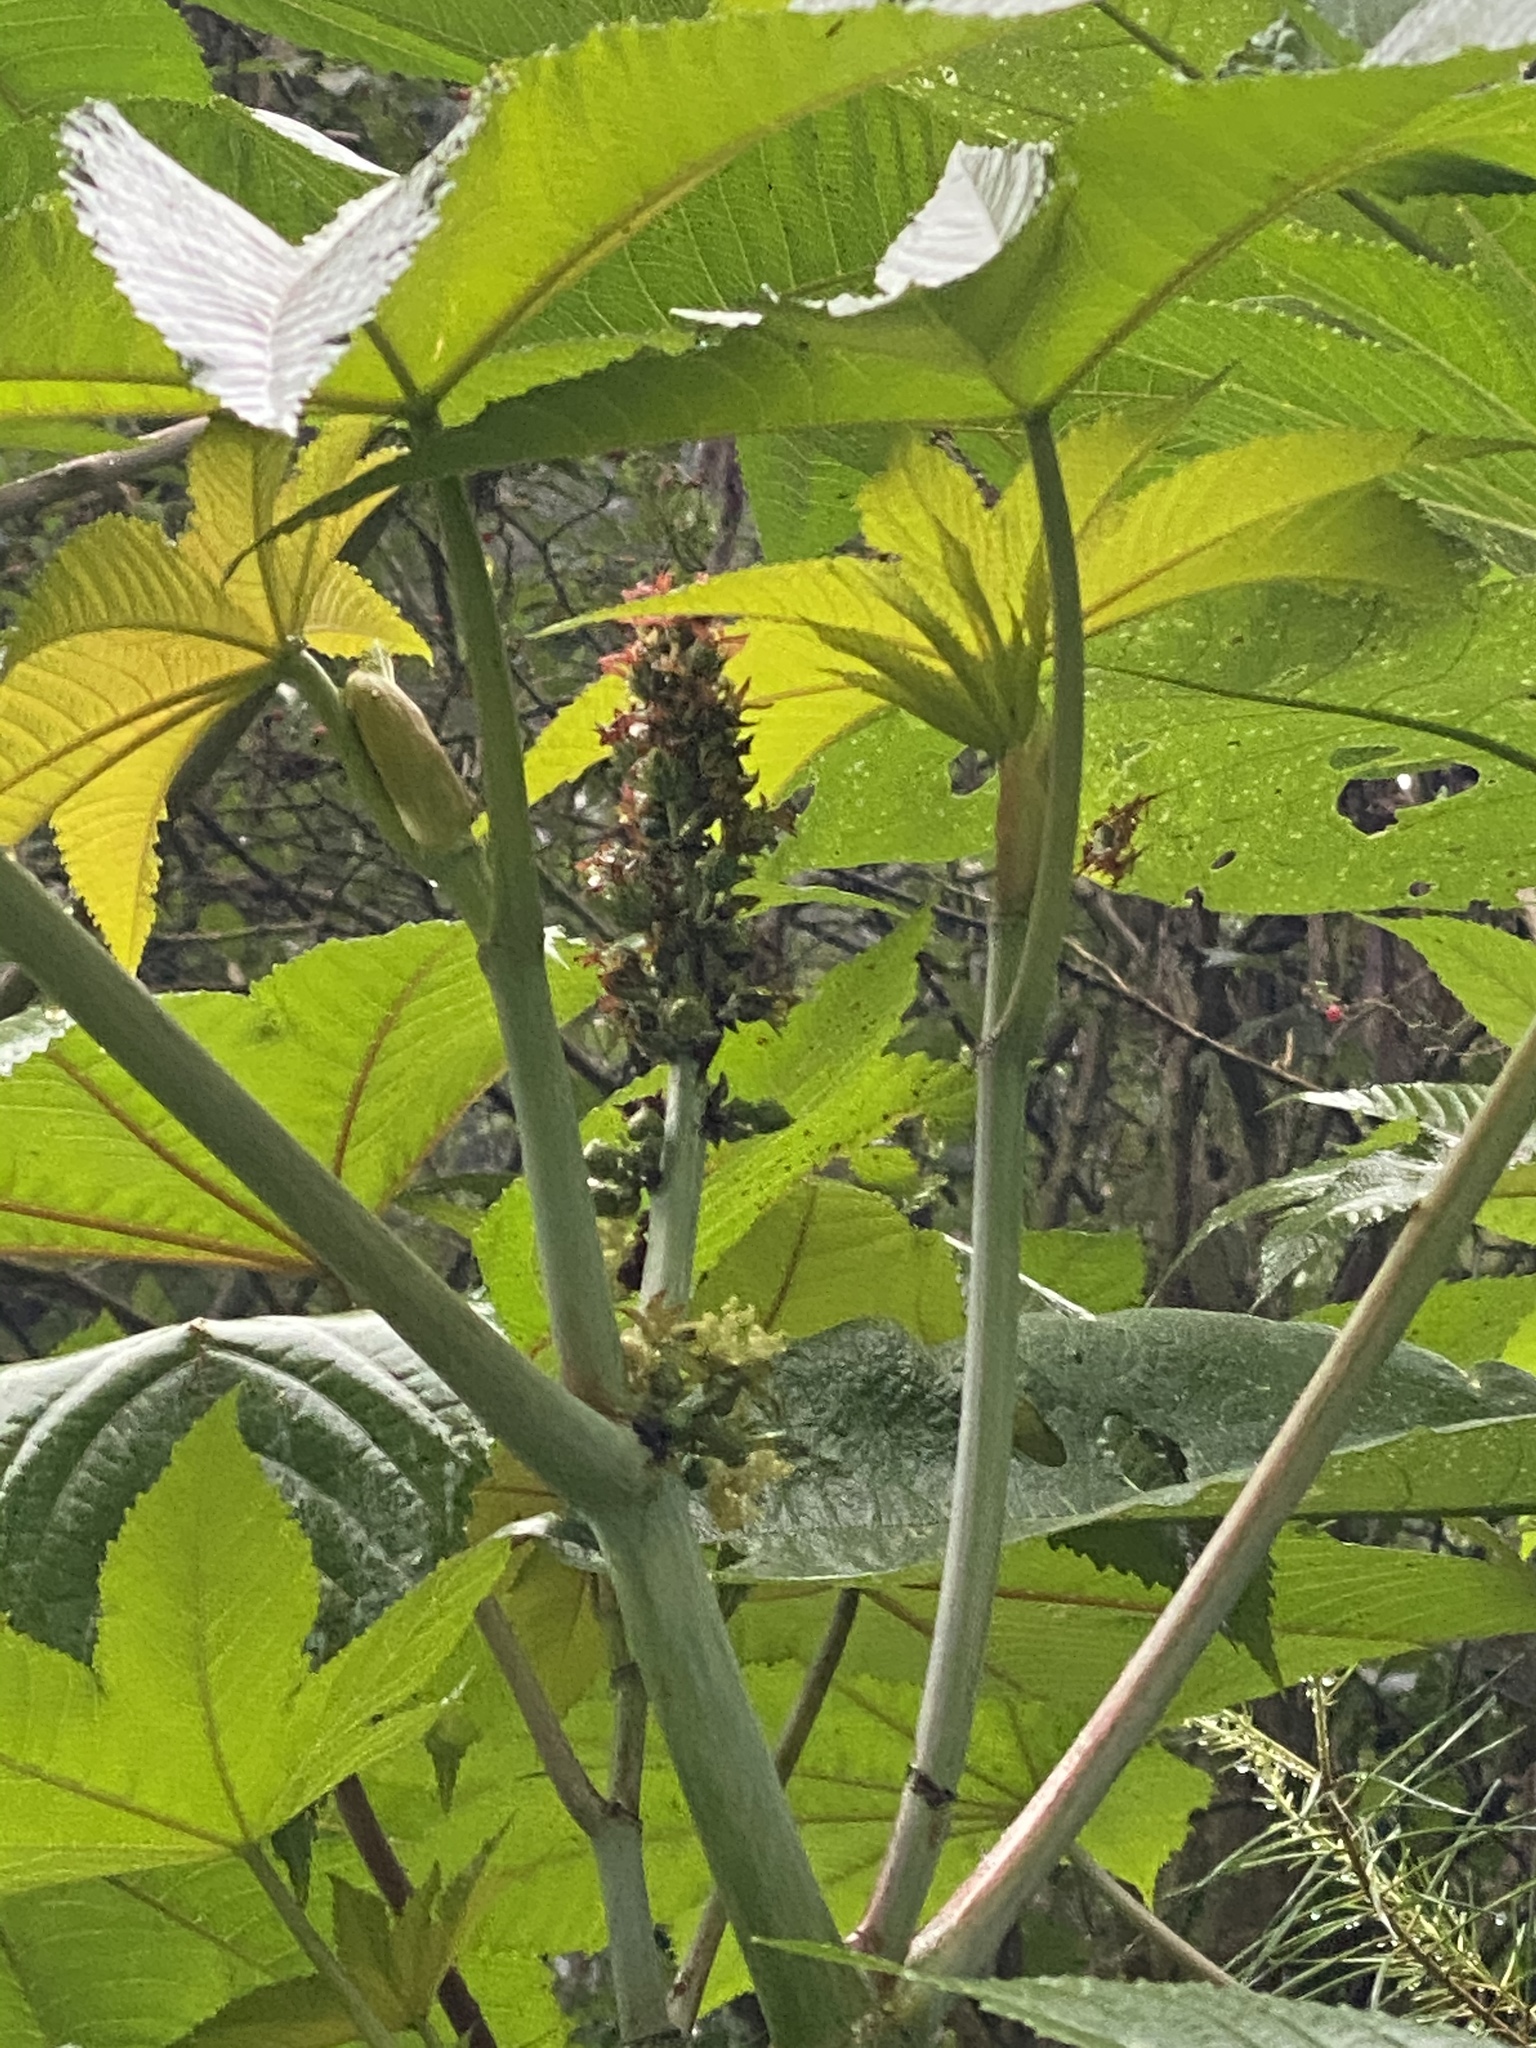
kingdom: Plantae
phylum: Tracheophyta
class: Magnoliopsida
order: Malpighiales
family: Euphorbiaceae
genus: Ricinus
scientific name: Ricinus communis
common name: Castor-oil-plant
